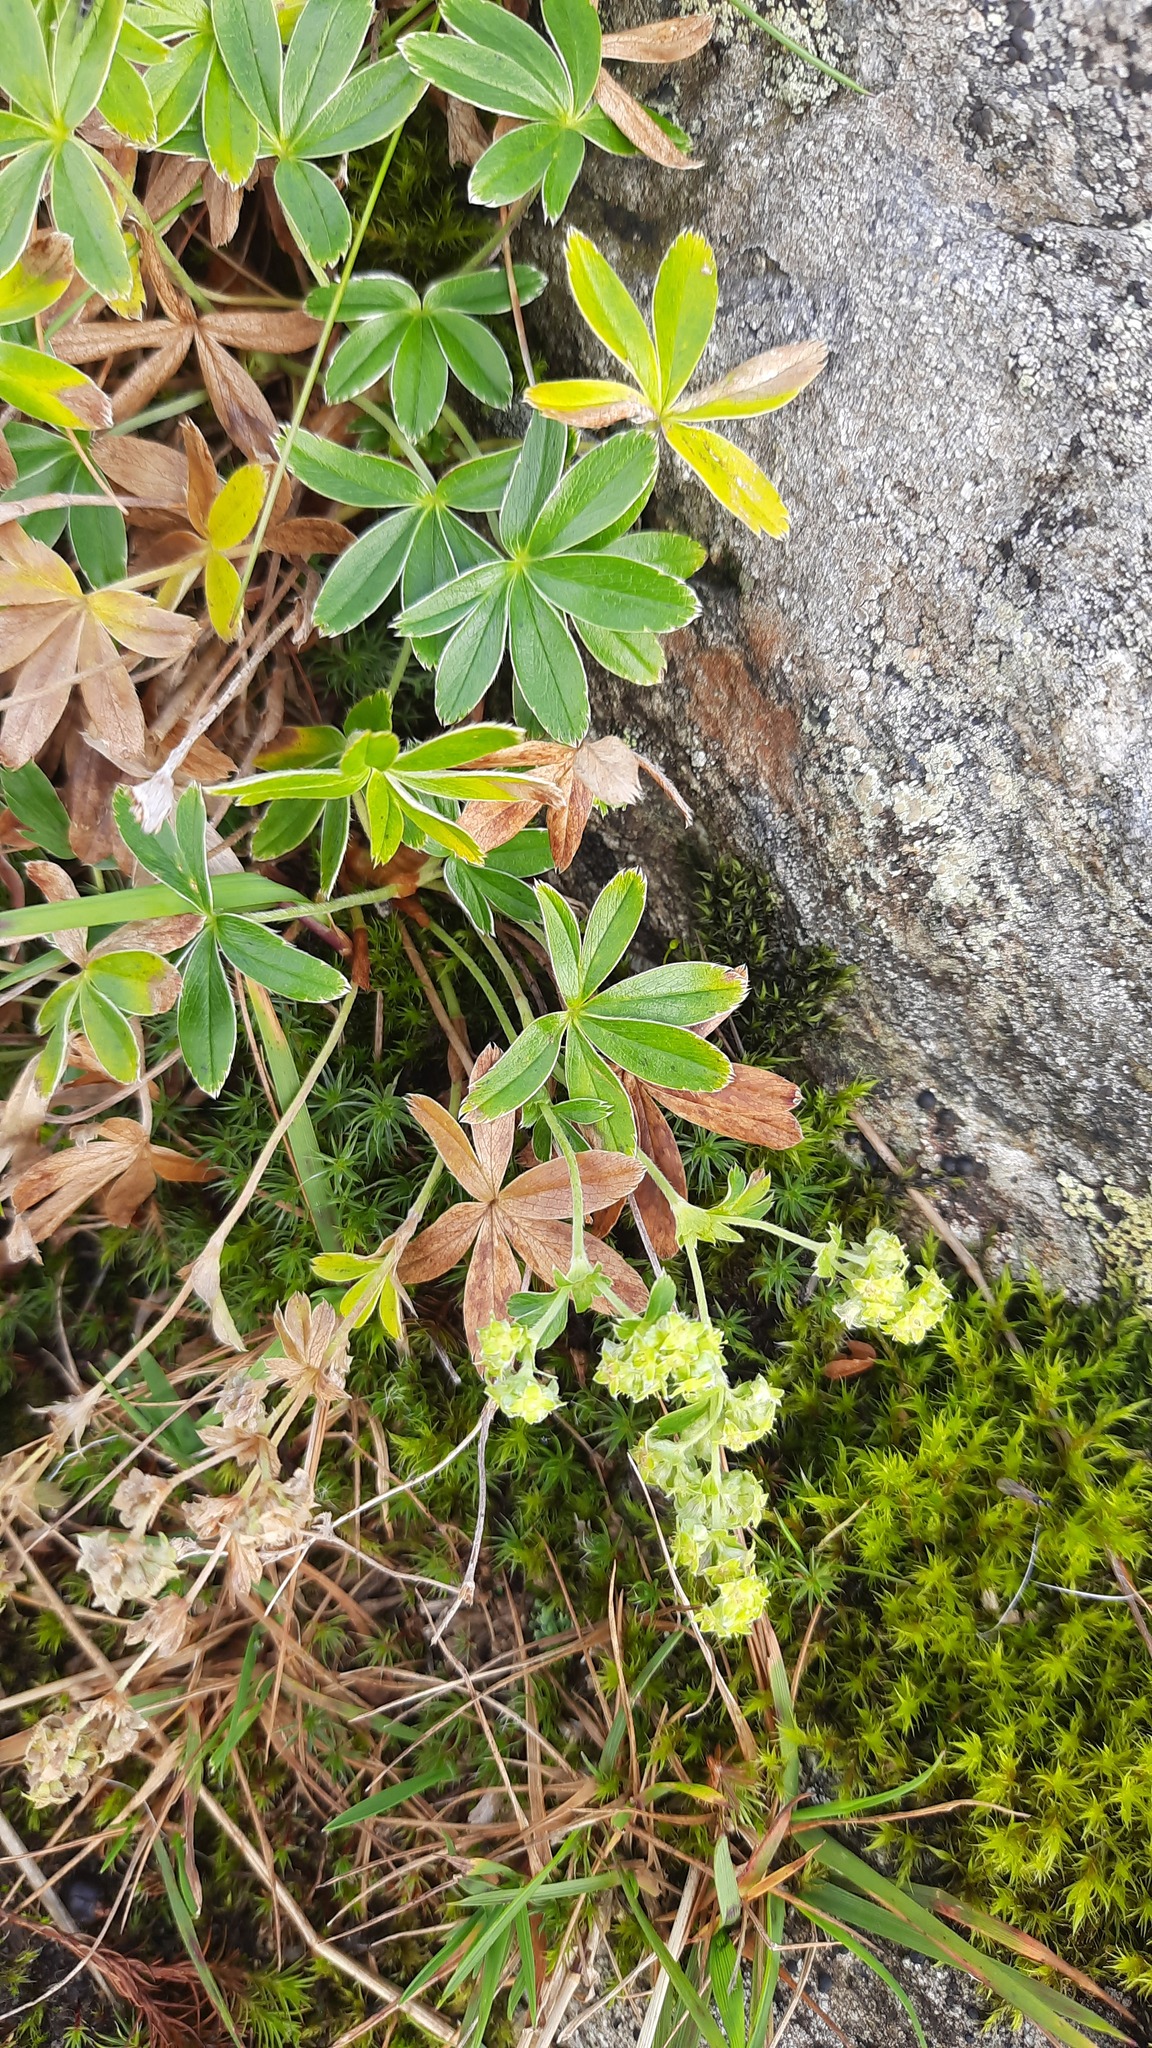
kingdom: Plantae
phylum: Tracheophyta
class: Magnoliopsida
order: Rosales
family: Rosaceae
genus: Alchemilla
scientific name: Alchemilla alpina
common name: Alpine lady's-mantle
